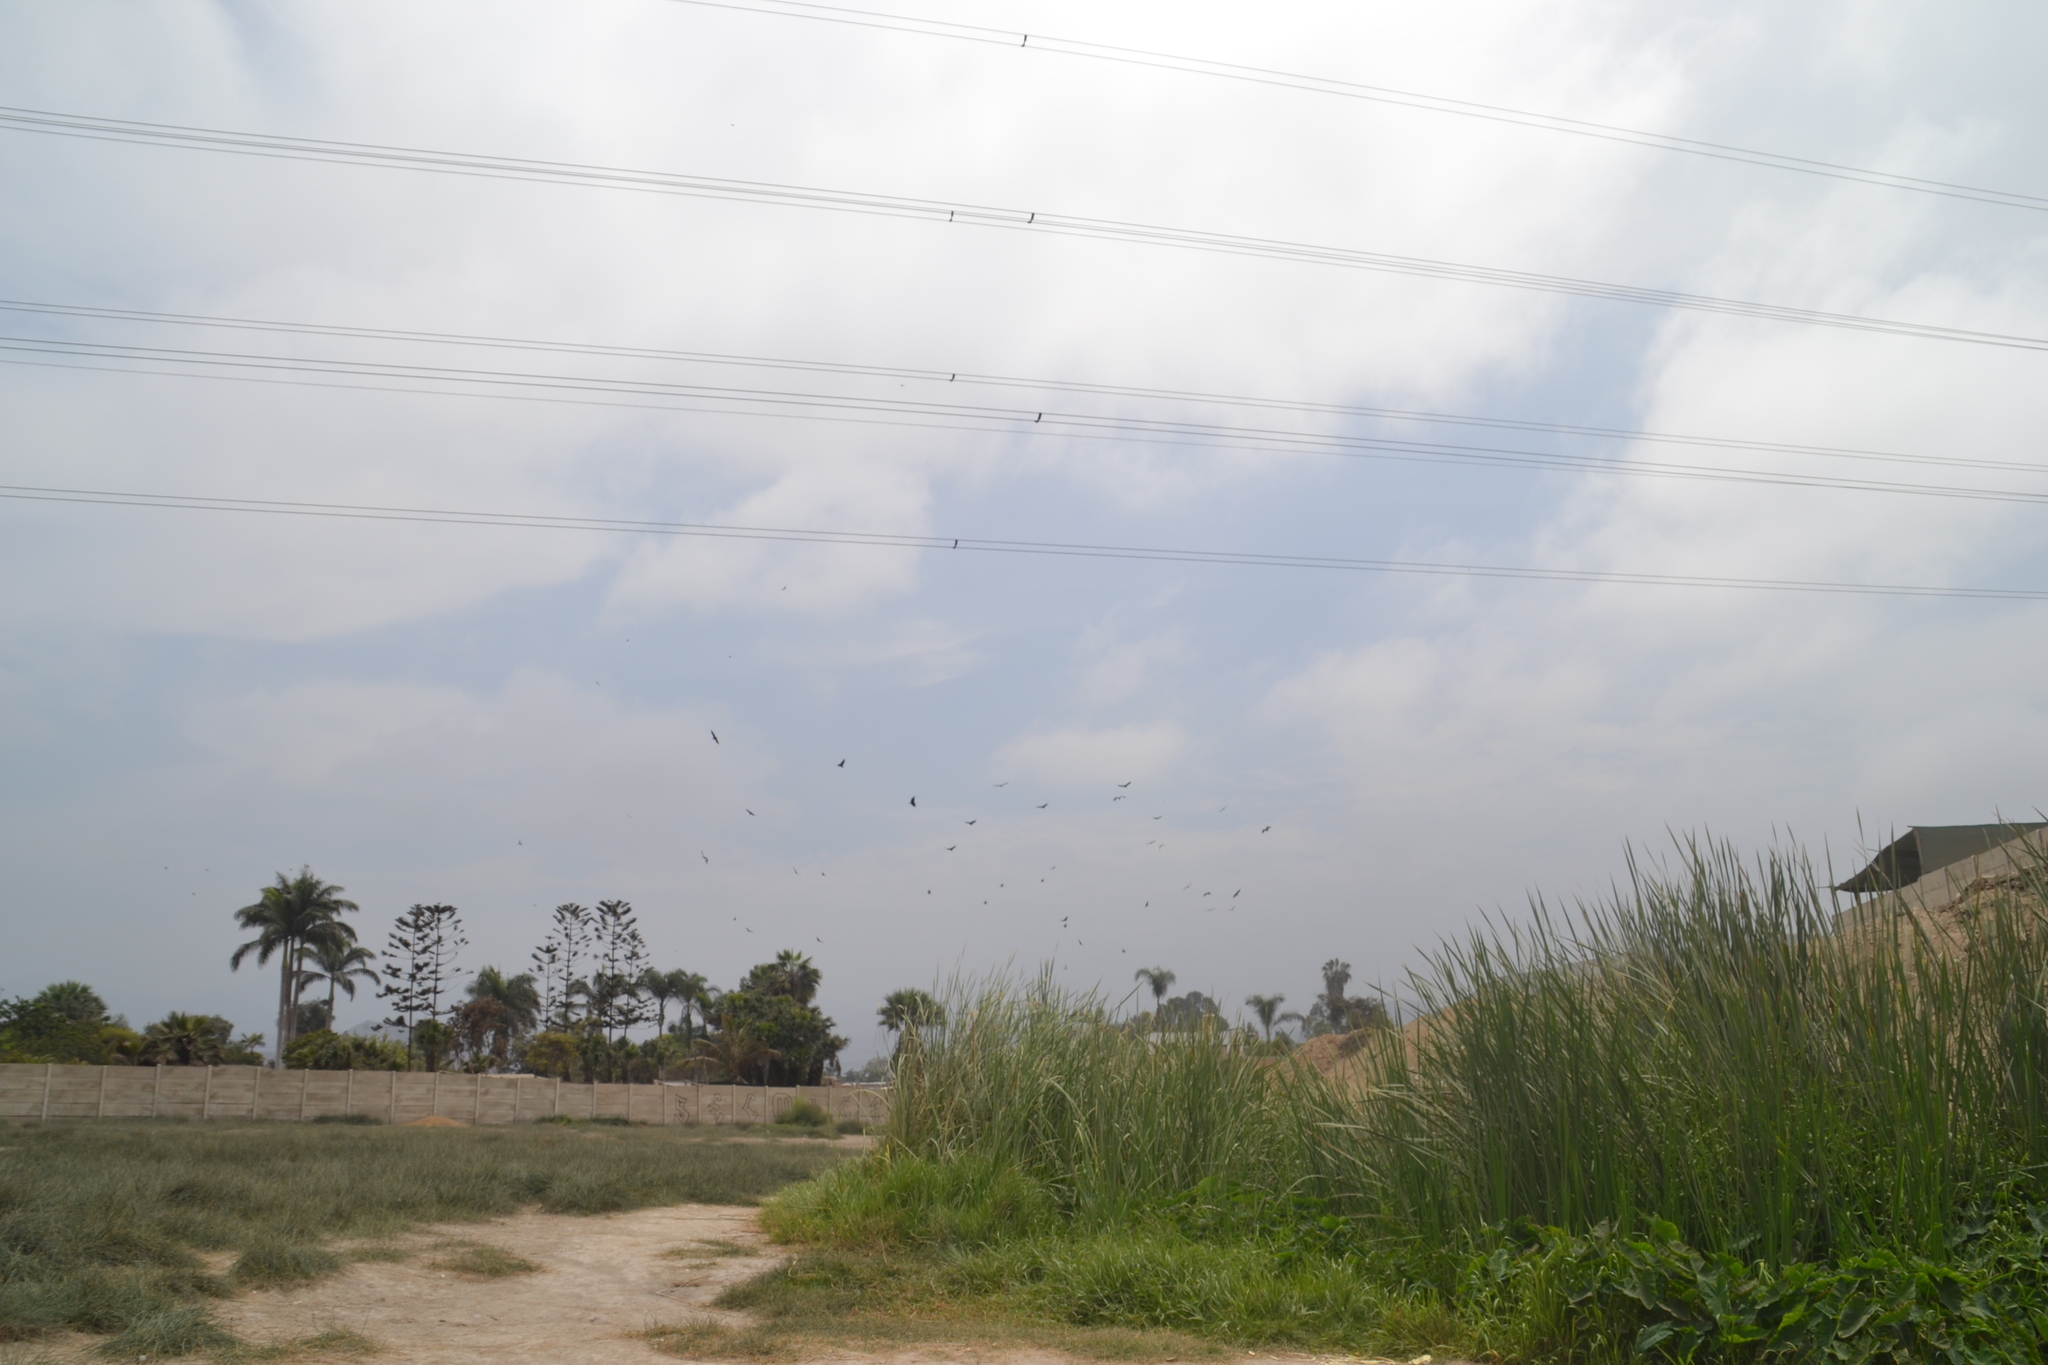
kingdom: Animalia
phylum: Chordata
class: Aves
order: Accipitriformes
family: Cathartidae
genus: Coragyps
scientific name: Coragyps atratus
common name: Black vulture
